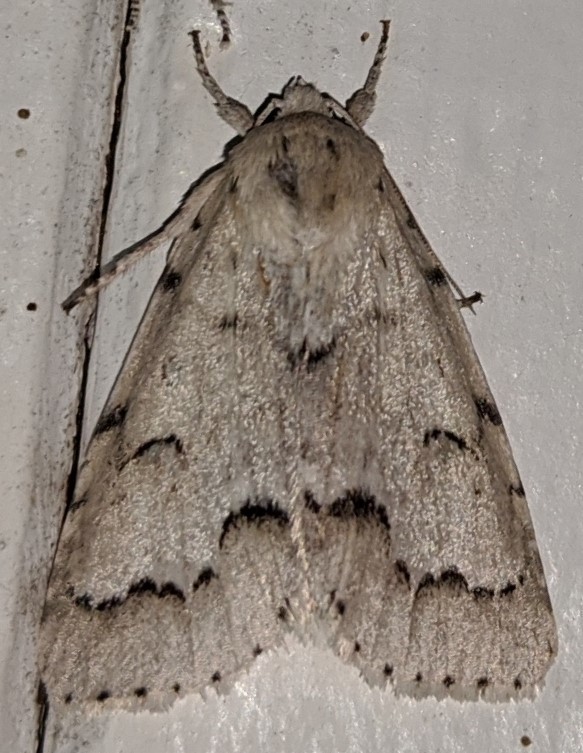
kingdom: Animalia
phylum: Arthropoda
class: Insecta
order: Lepidoptera
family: Noctuidae
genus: Acronicta
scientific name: Acronicta innotata
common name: Unmarked dagger
